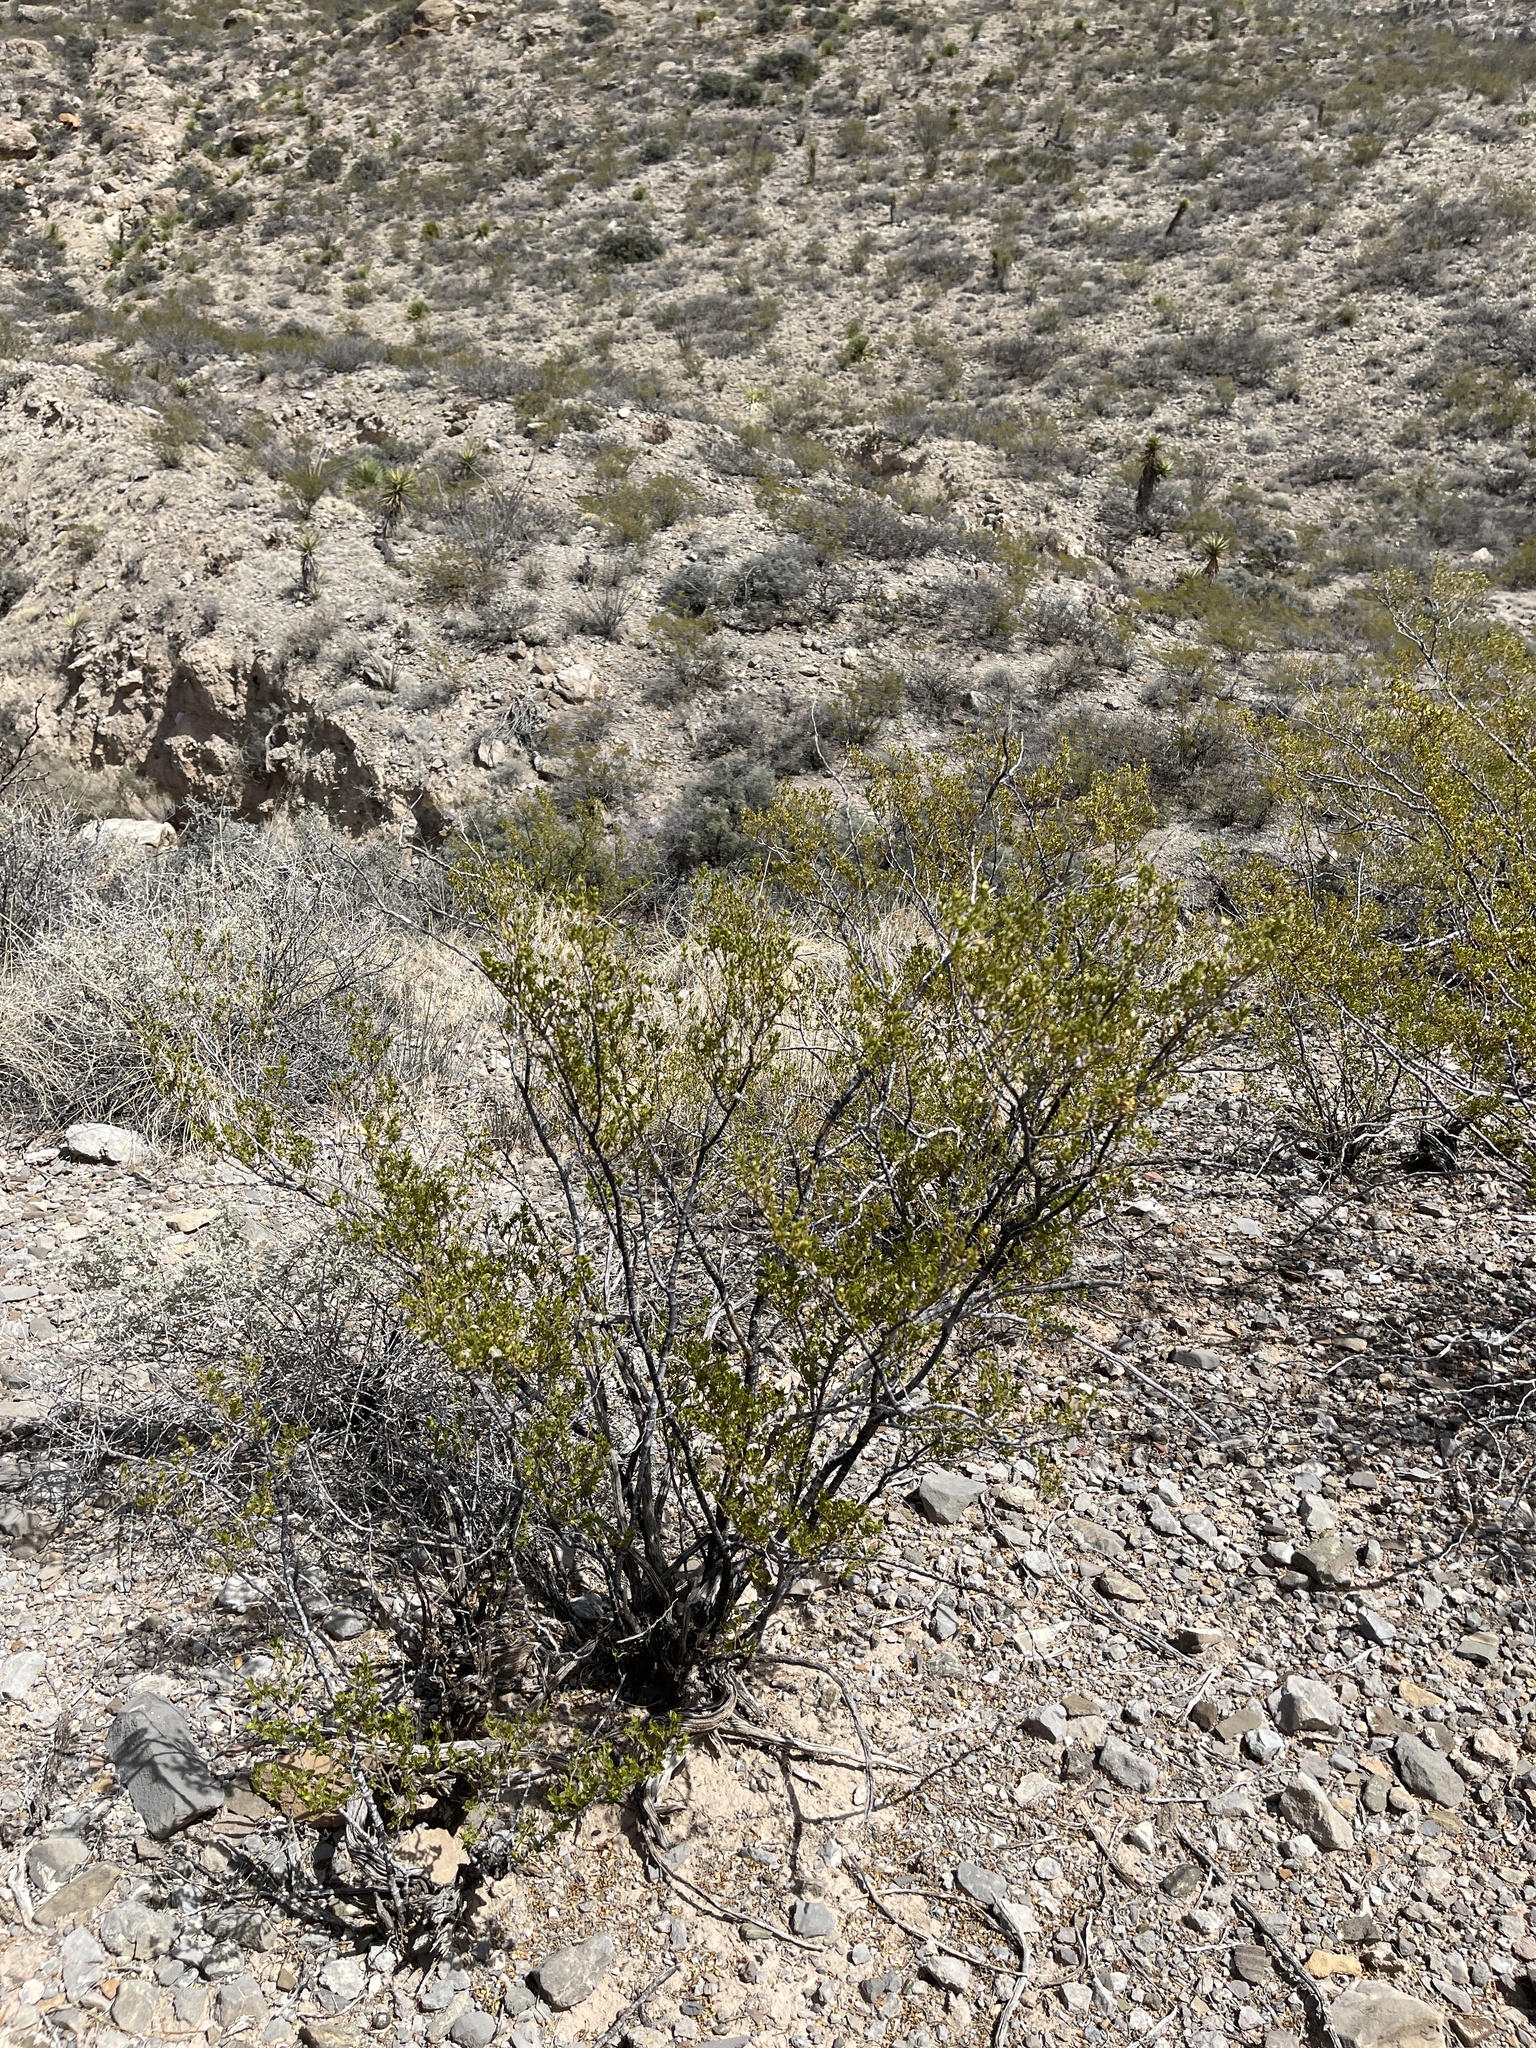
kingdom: Plantae
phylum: Tracheophyta
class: Magnoliopsida
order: Zygophyllales
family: Zygophyllaceae
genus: Larrea
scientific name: Larrea tridentata
